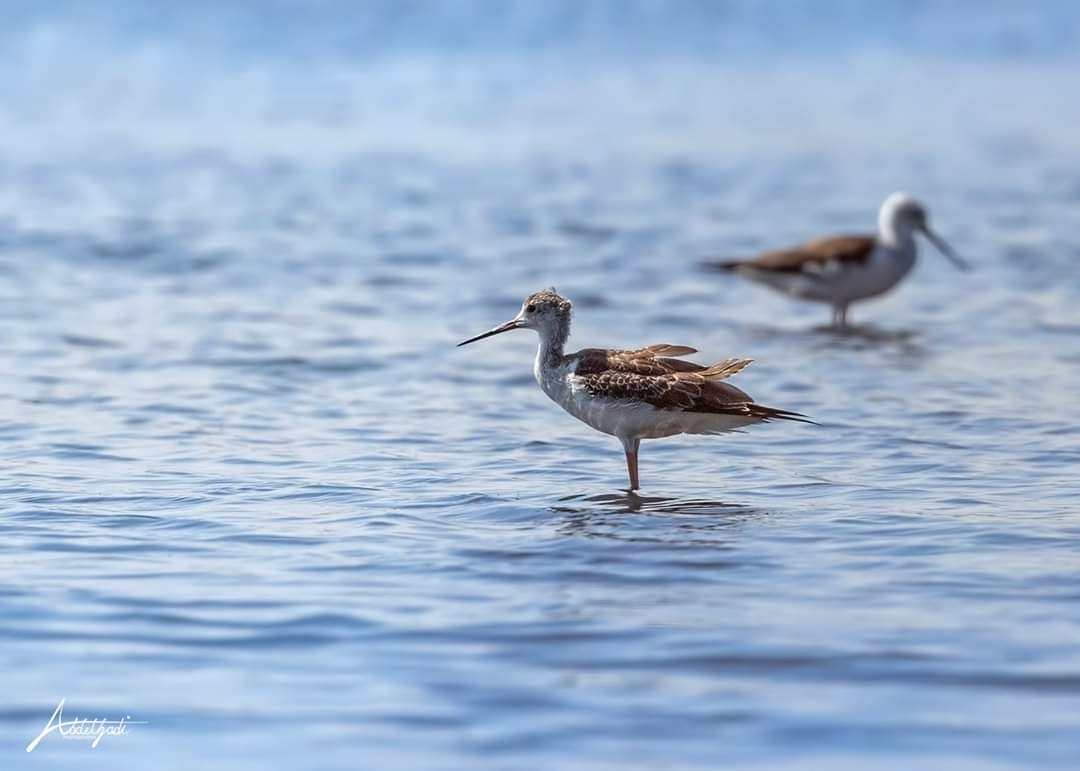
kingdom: Animalia
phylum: Chordata
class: Aves
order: Charadriiformes
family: Recurvirostridae
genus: Himantopus
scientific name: Himantopus himantopus
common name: Black-winged stilt
